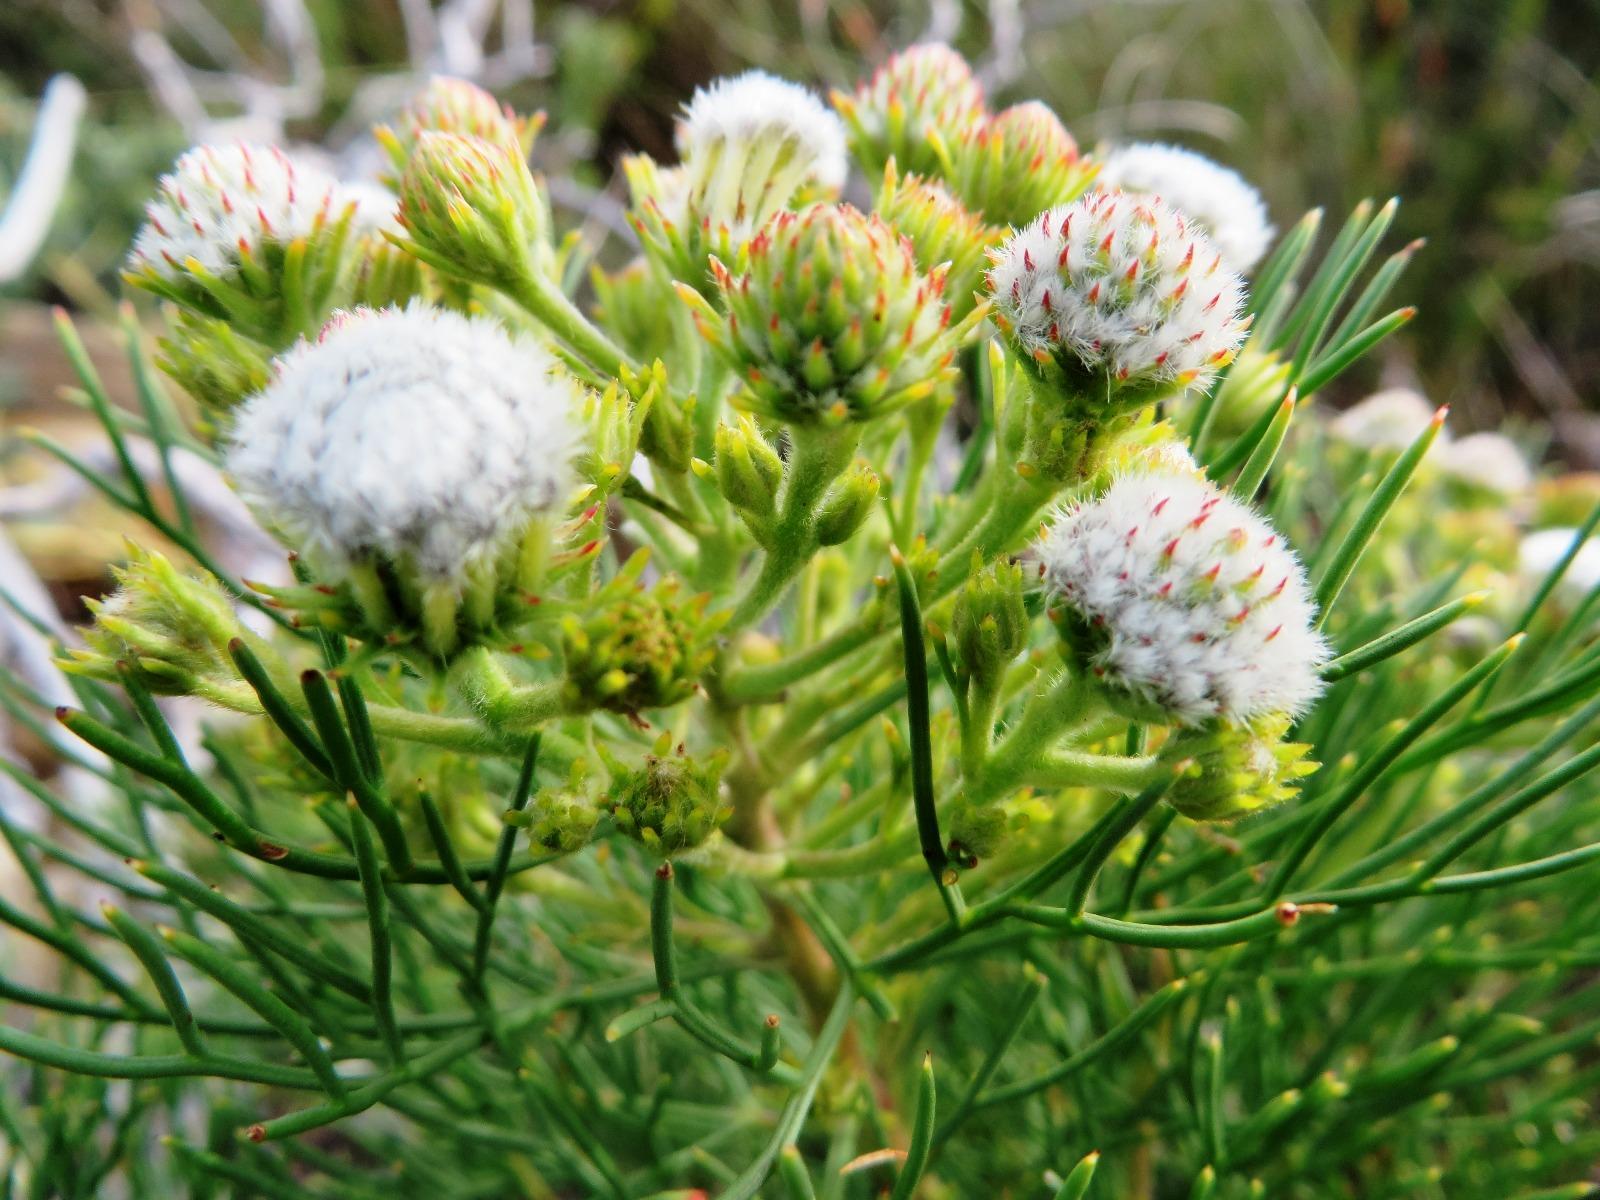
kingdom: Plantae
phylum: Tracheophyta
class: Magnoliopsida
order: Proteales
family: Proteaceae
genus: Serruria
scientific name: Serruria kraussii
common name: Snowball spiderhead
